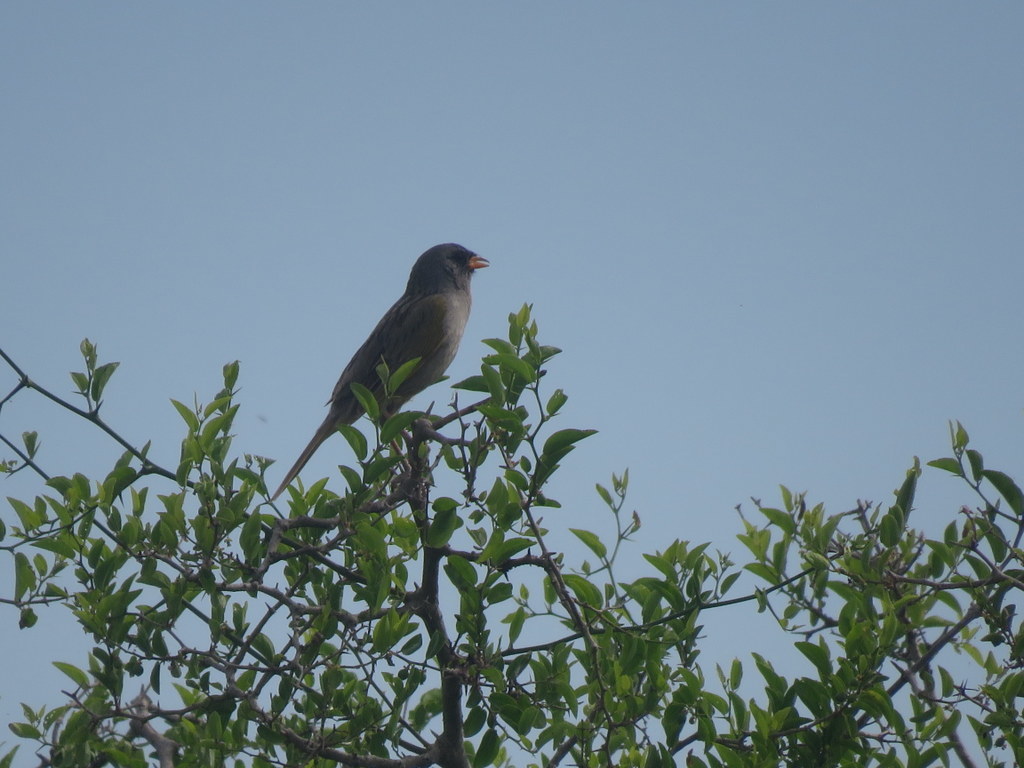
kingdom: Animalia
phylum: Chordata
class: Aves
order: Passeriformes
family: Thraupidae
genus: Embernagra
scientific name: Embernagra platensis
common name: Pampa finch
